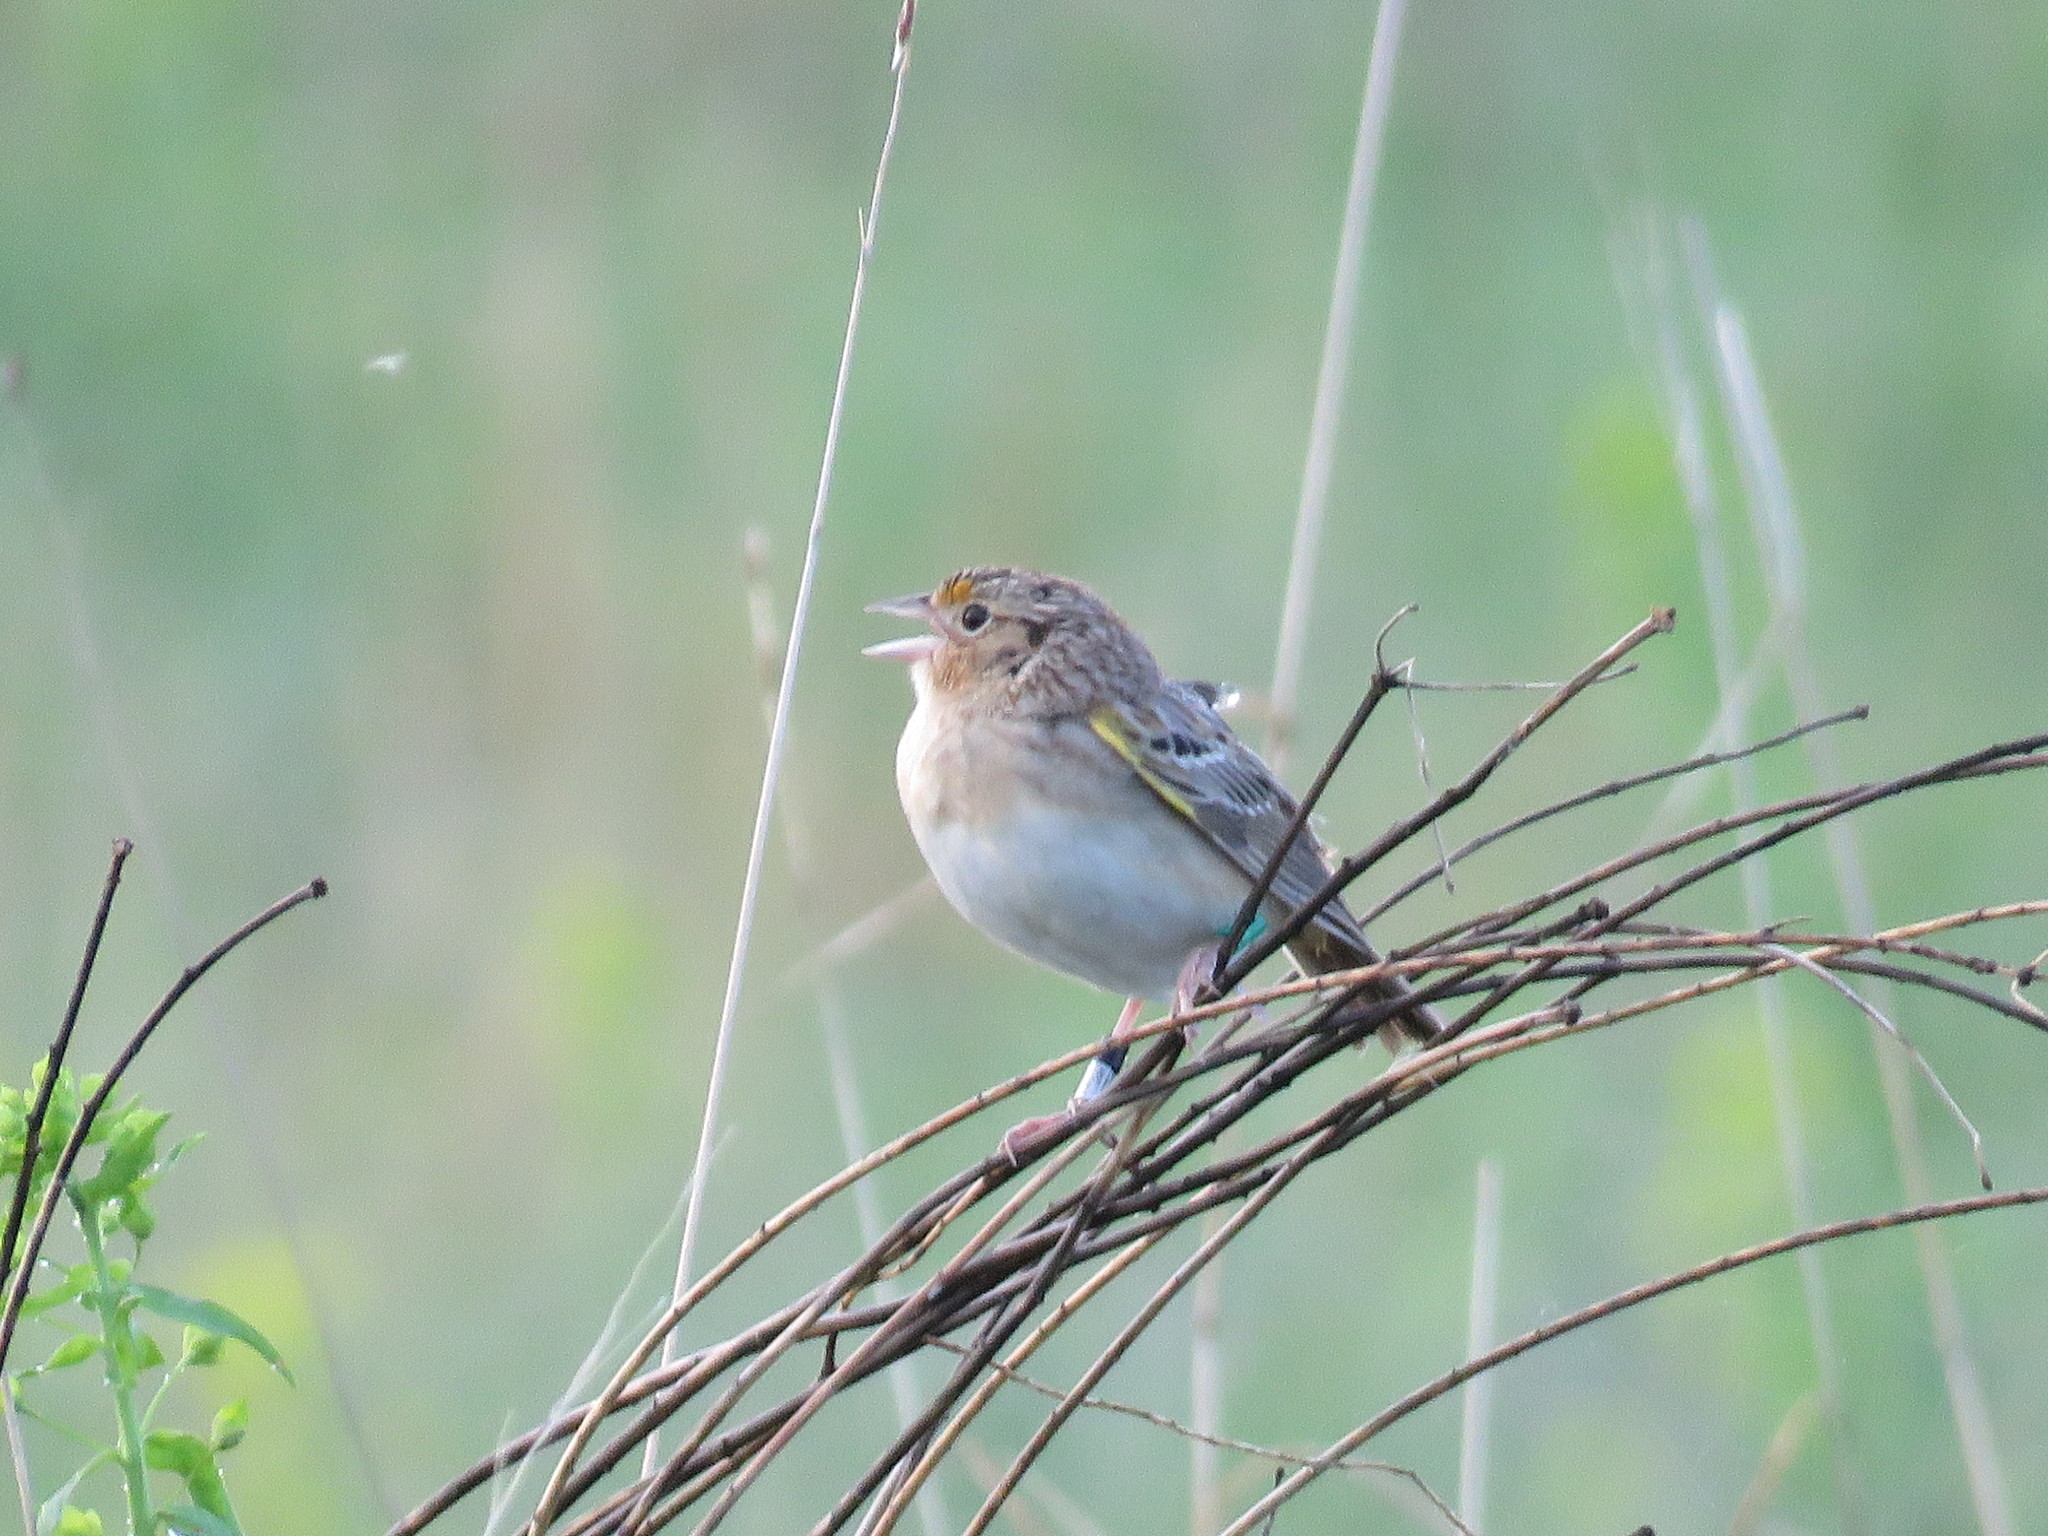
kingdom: Animalia
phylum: Chordata
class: Aves
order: Passeriformes
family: Passerellidae
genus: Ammodramus
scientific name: Ammodramus savannarum
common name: Grasshopper sparrow
